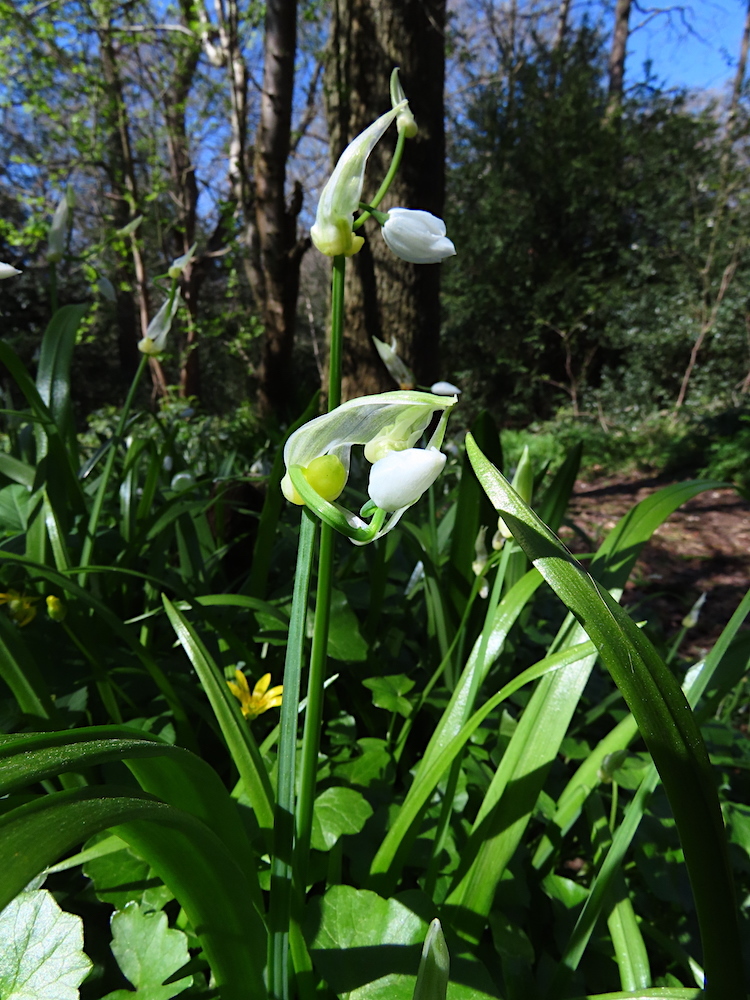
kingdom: Plantae
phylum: Tracheophyta
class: Liliopsida
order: Asparagales
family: Amaryllidaceae
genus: Allium
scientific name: Allium paradoxum
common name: Few-flowered garlic
